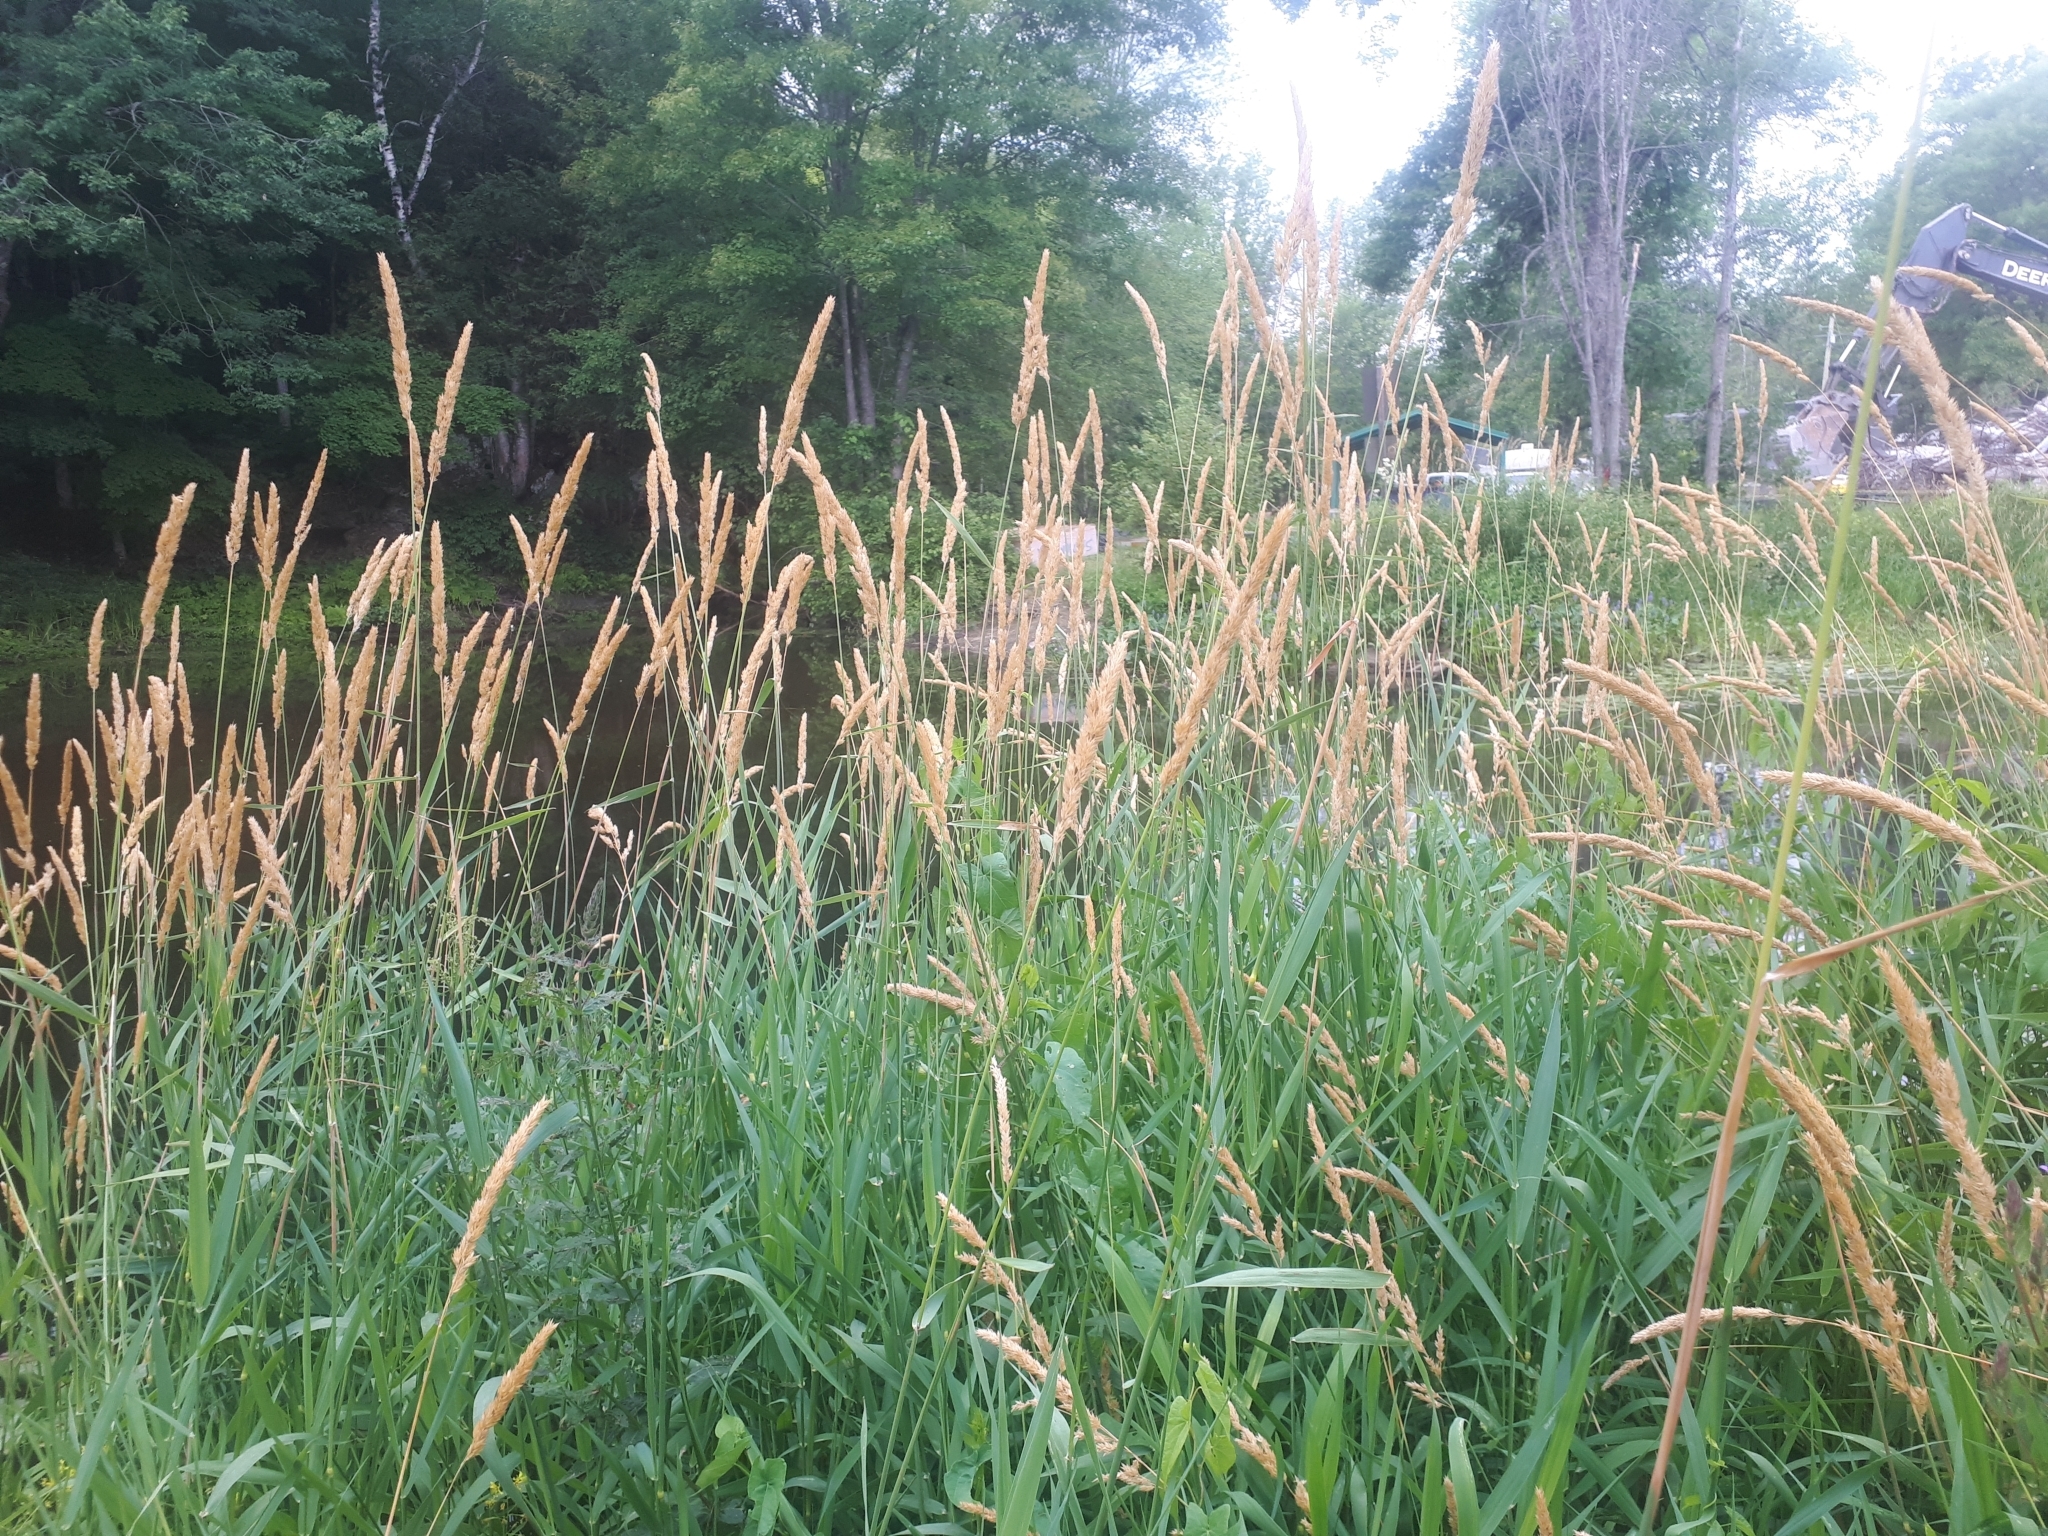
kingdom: Plantae
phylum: Tracheophyta
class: Liliopsida
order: Poales
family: Poaceae
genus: Phalaris
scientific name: Phalaris arundinacea
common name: Reed canary-grass
